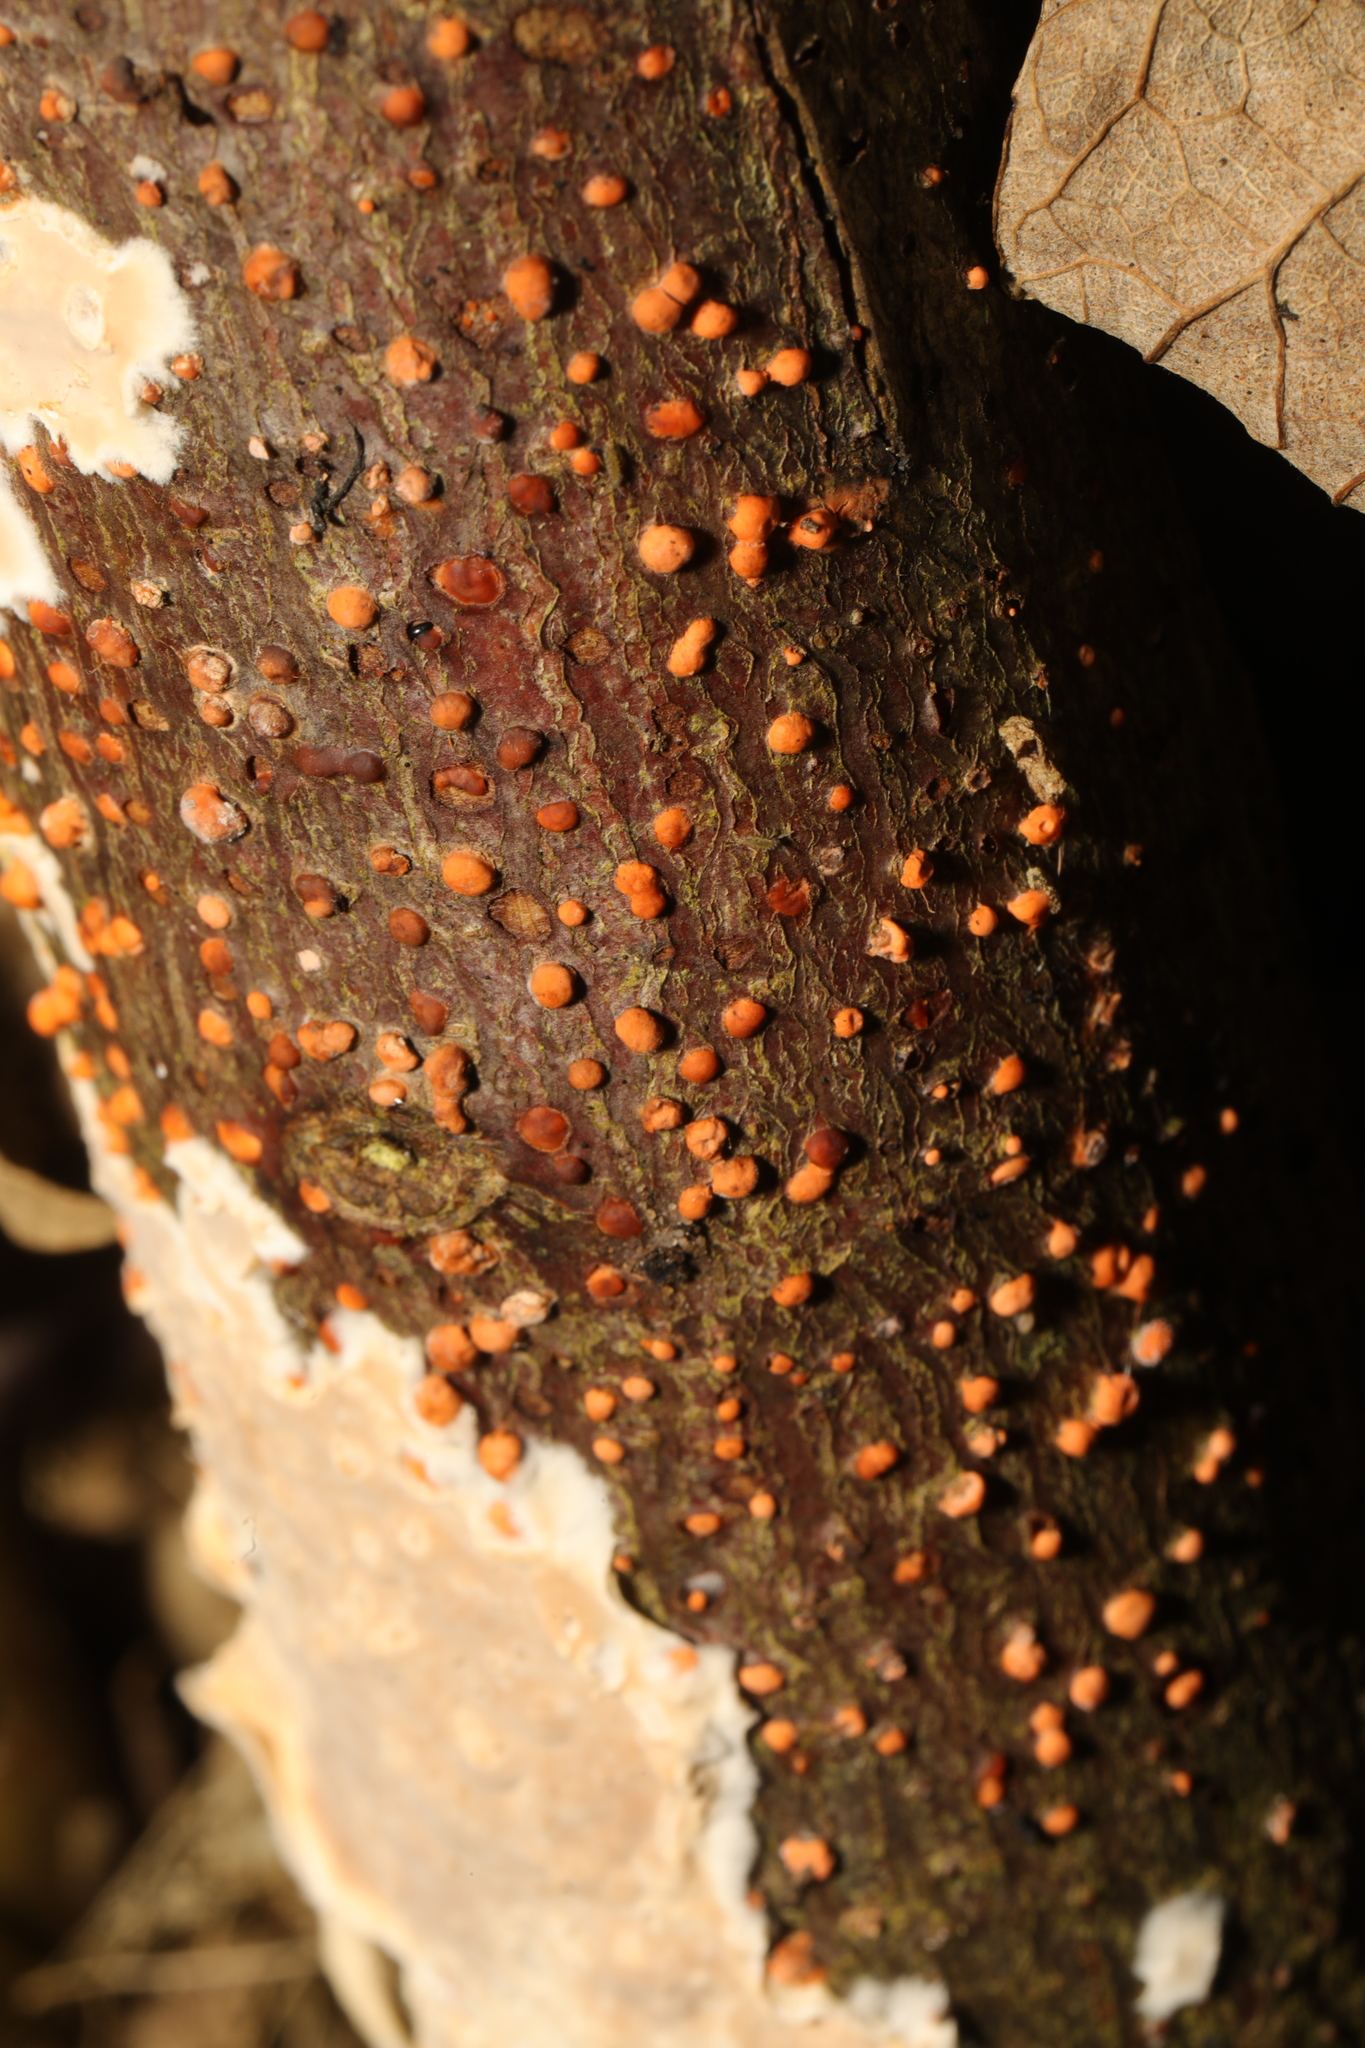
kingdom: Fungi
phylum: Ascomycota
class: Sordariomycetes
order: Hypocreales
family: Nectriaceae
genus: Nectria
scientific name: Nectria cinnabarina
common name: Coral spot
